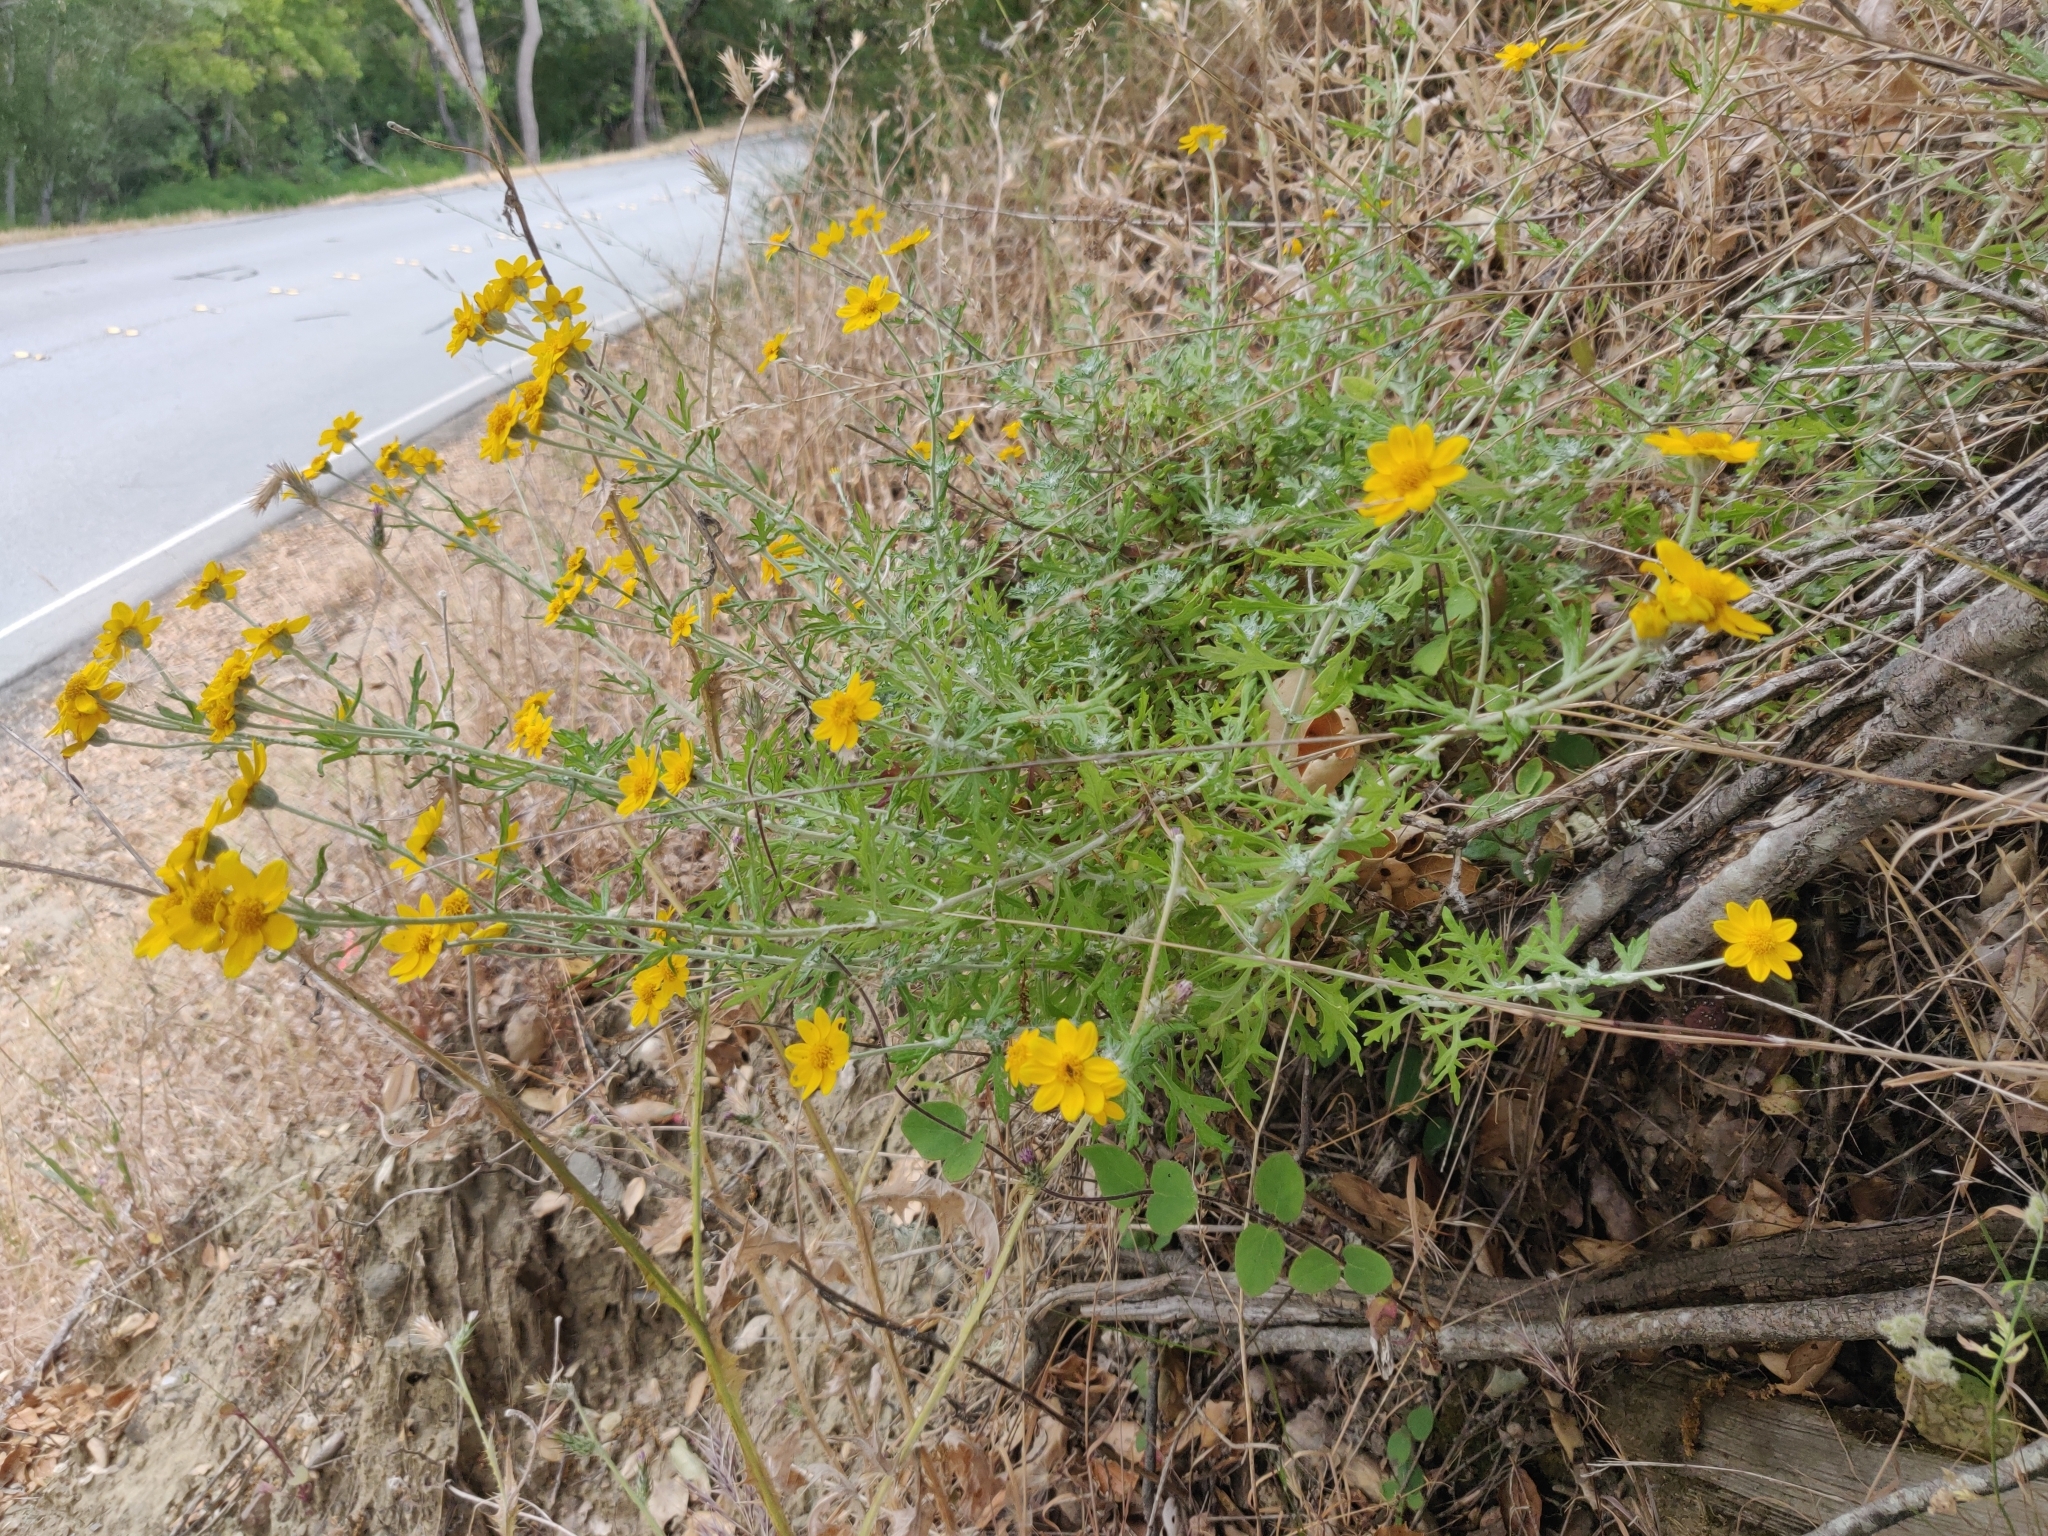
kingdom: Plantae
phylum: Tracheophyta
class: Magnoliopsida
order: Asterales
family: Asteraceae
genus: Eriophyllum
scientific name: Eriophyllum latilobum
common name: San mateo woolly-sunflower
